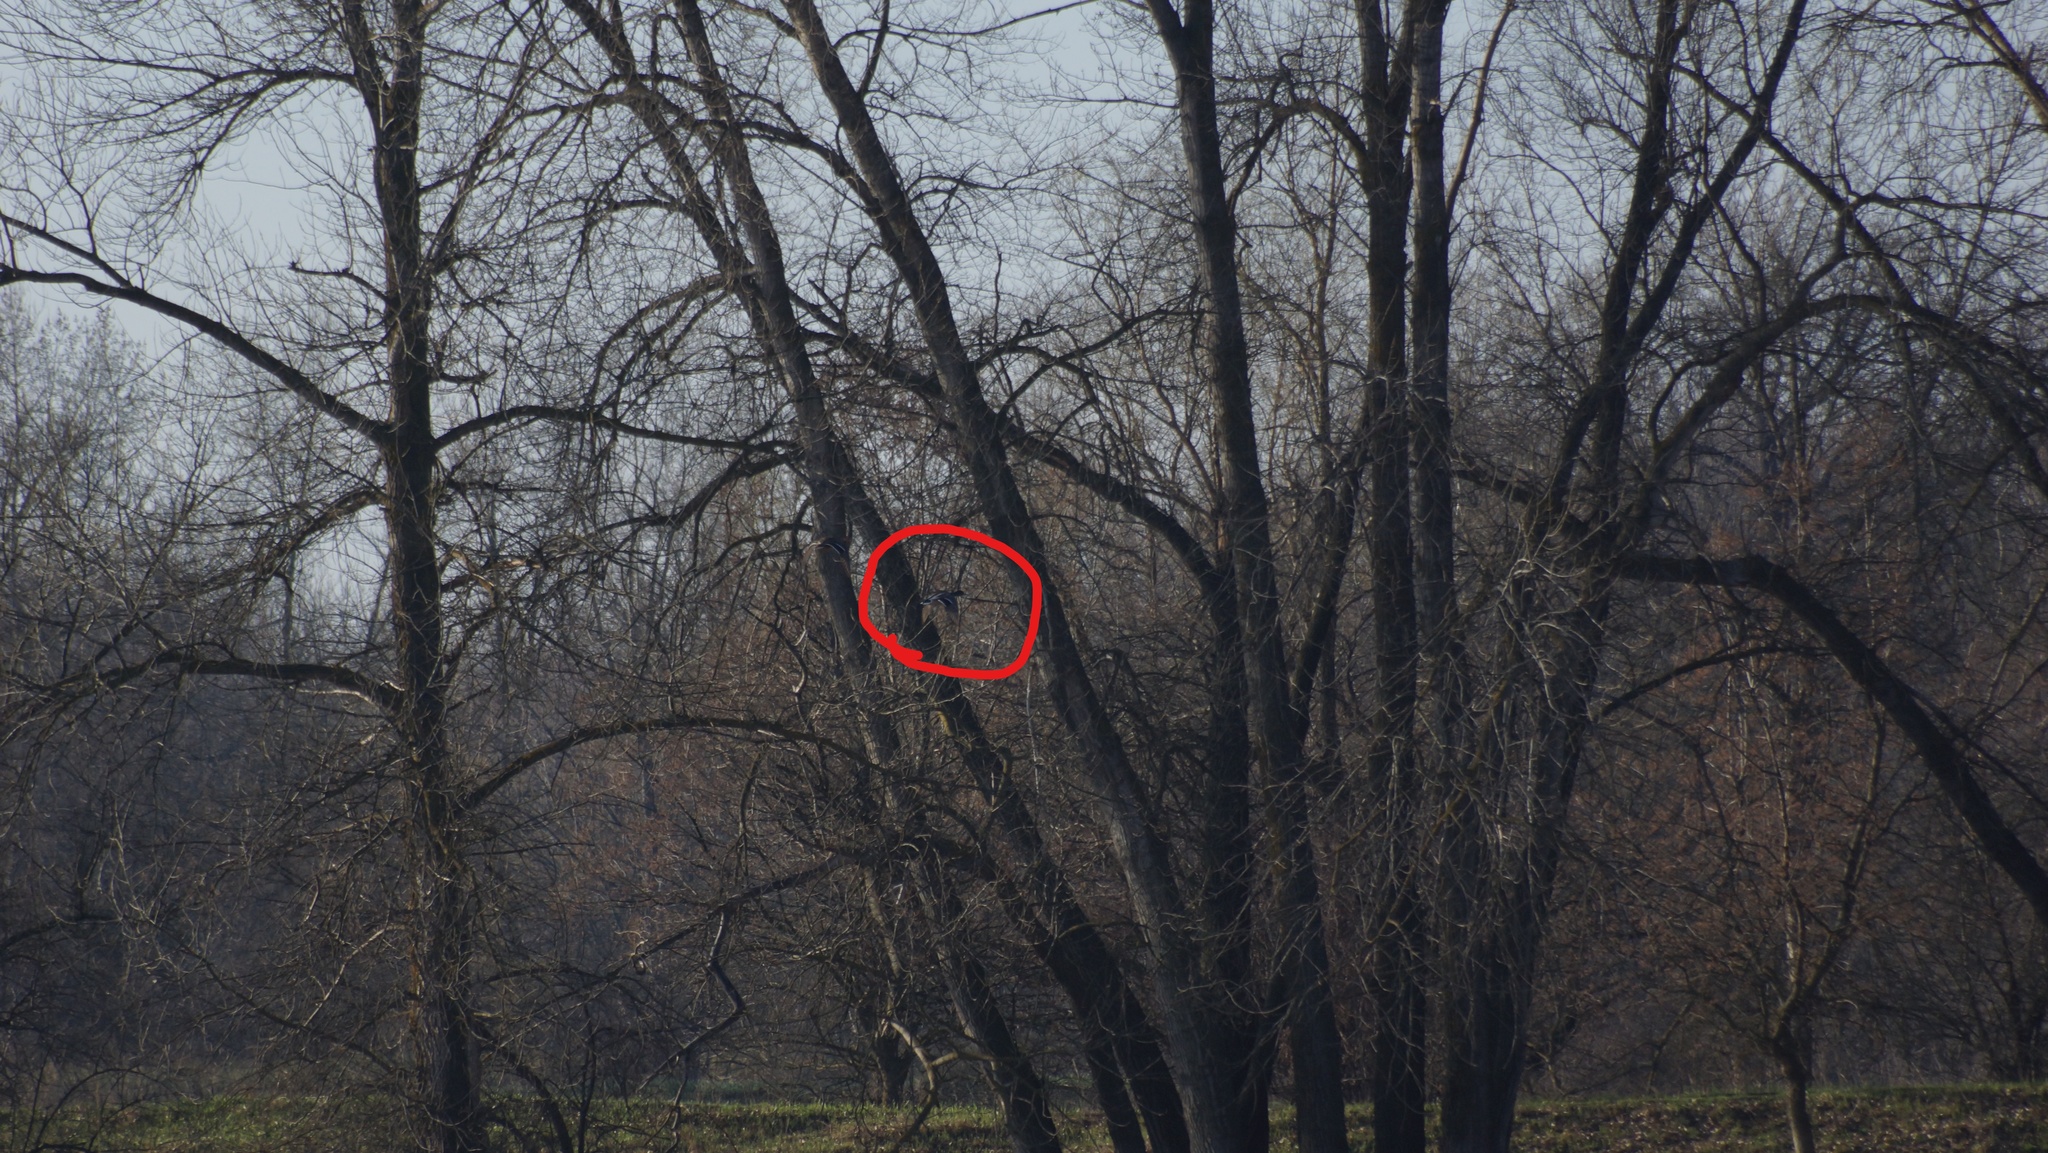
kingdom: Animalia
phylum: Chordata
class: Aves
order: Anseriformes
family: Anatidae
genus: Anas
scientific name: Anas platyrhynchos
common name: Mallard
